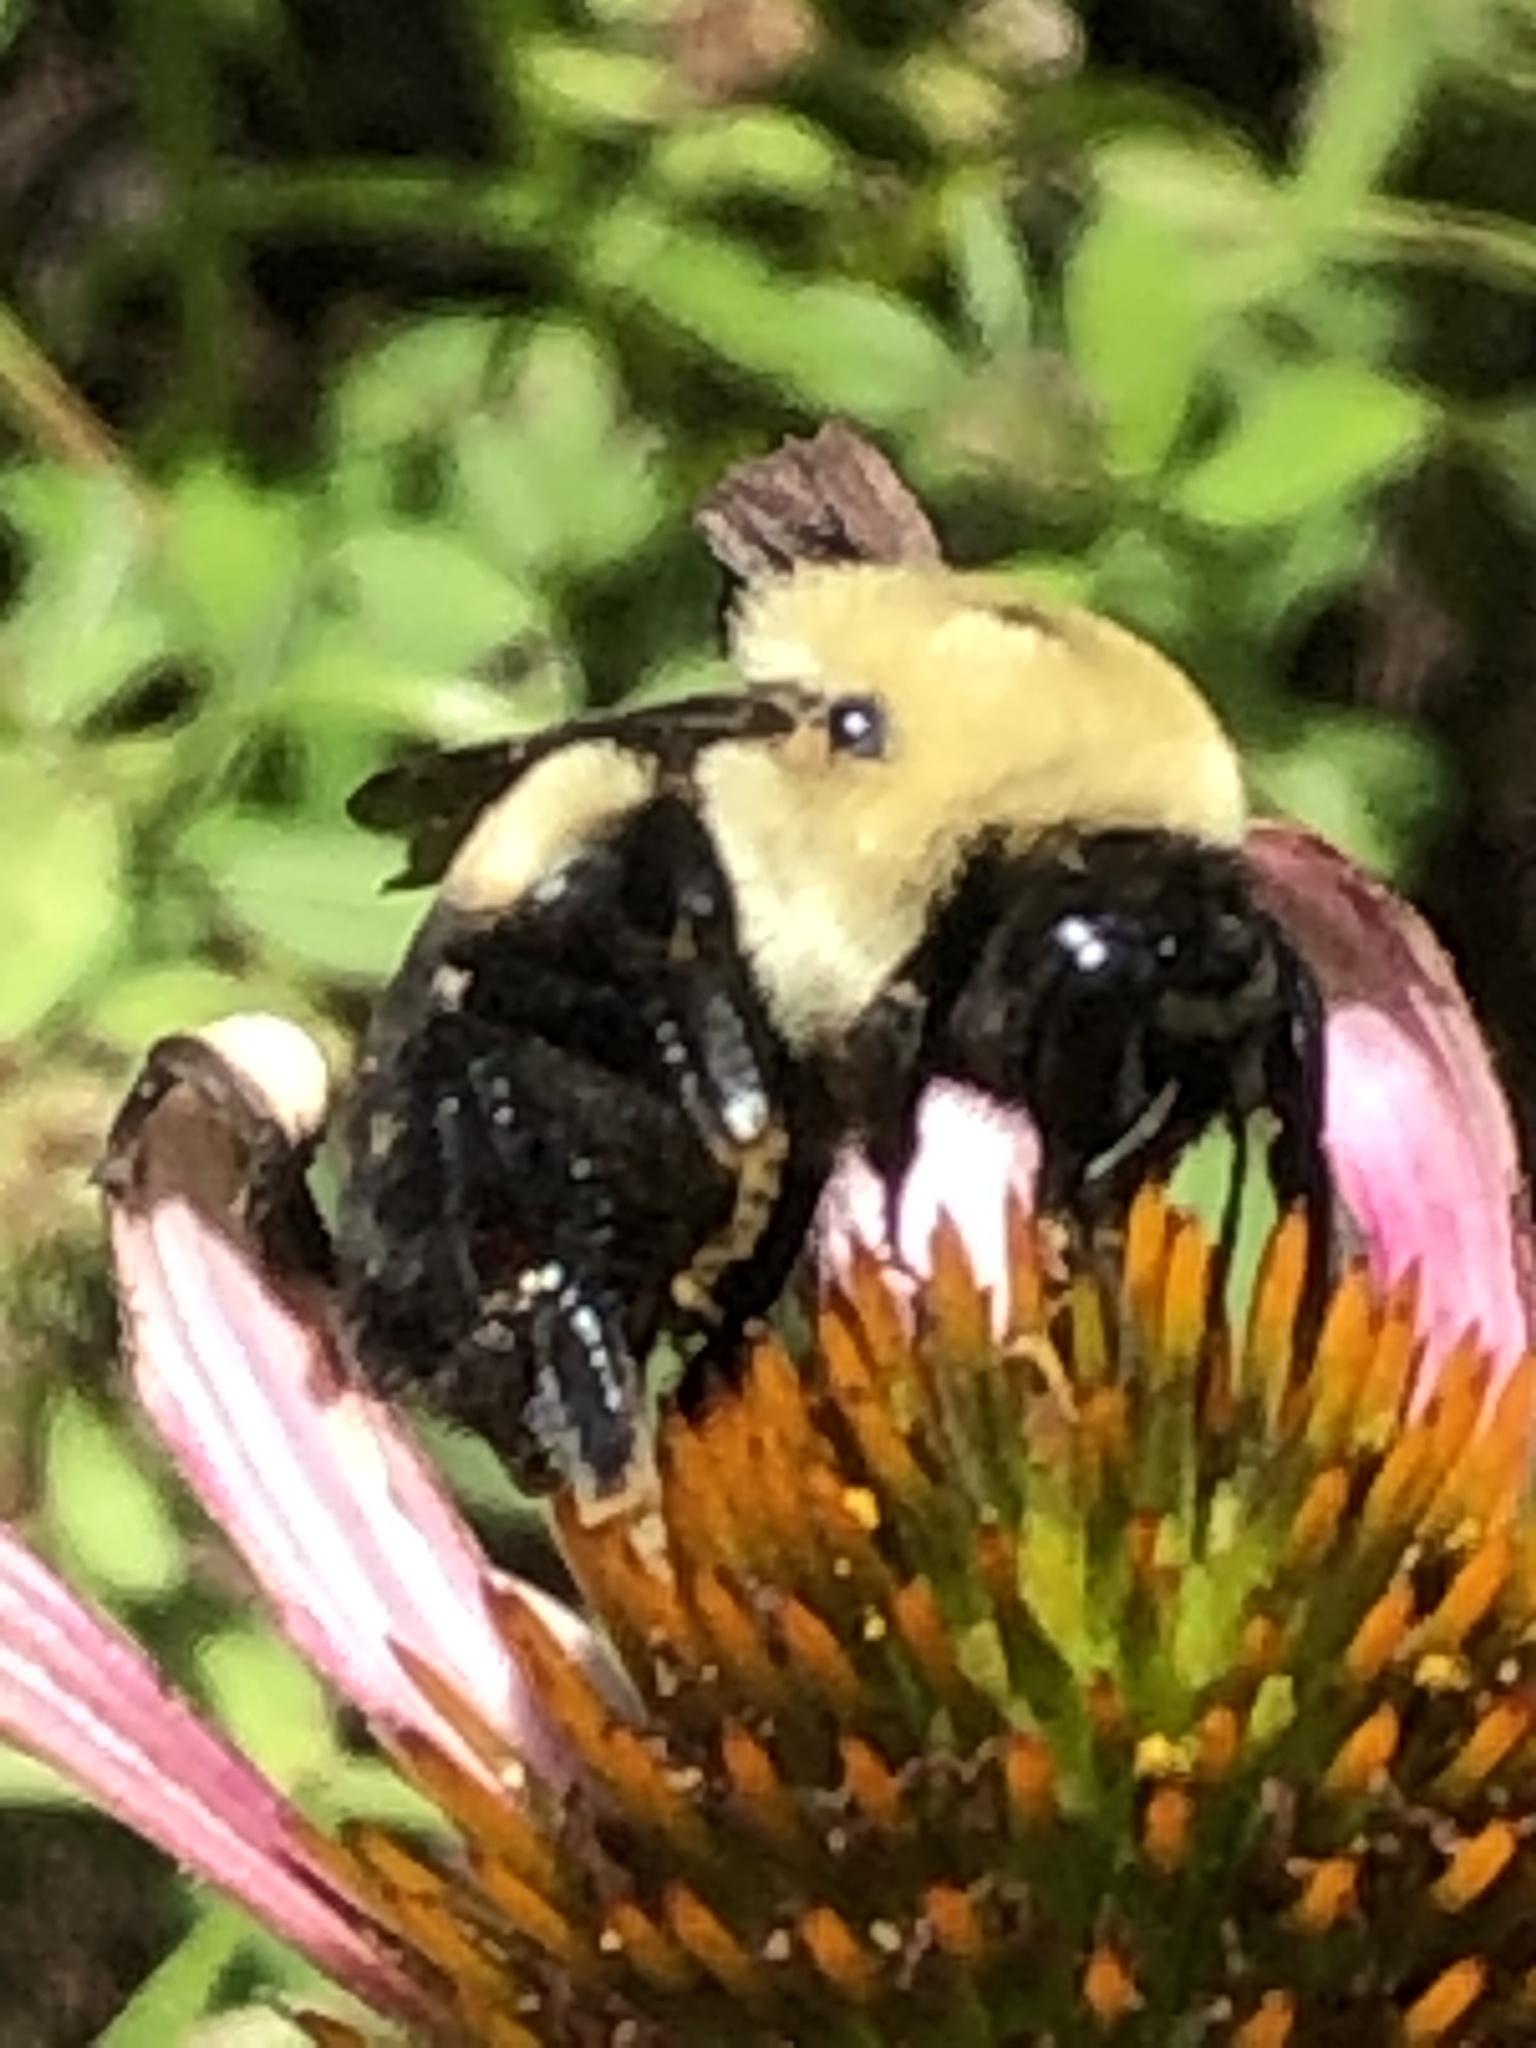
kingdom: Animalia
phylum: Arthropoda
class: Insecta
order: Hymenoptera
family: Apidae
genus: Bombus
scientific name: Bombus griseocollis
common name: Brown-belted bumble bee
